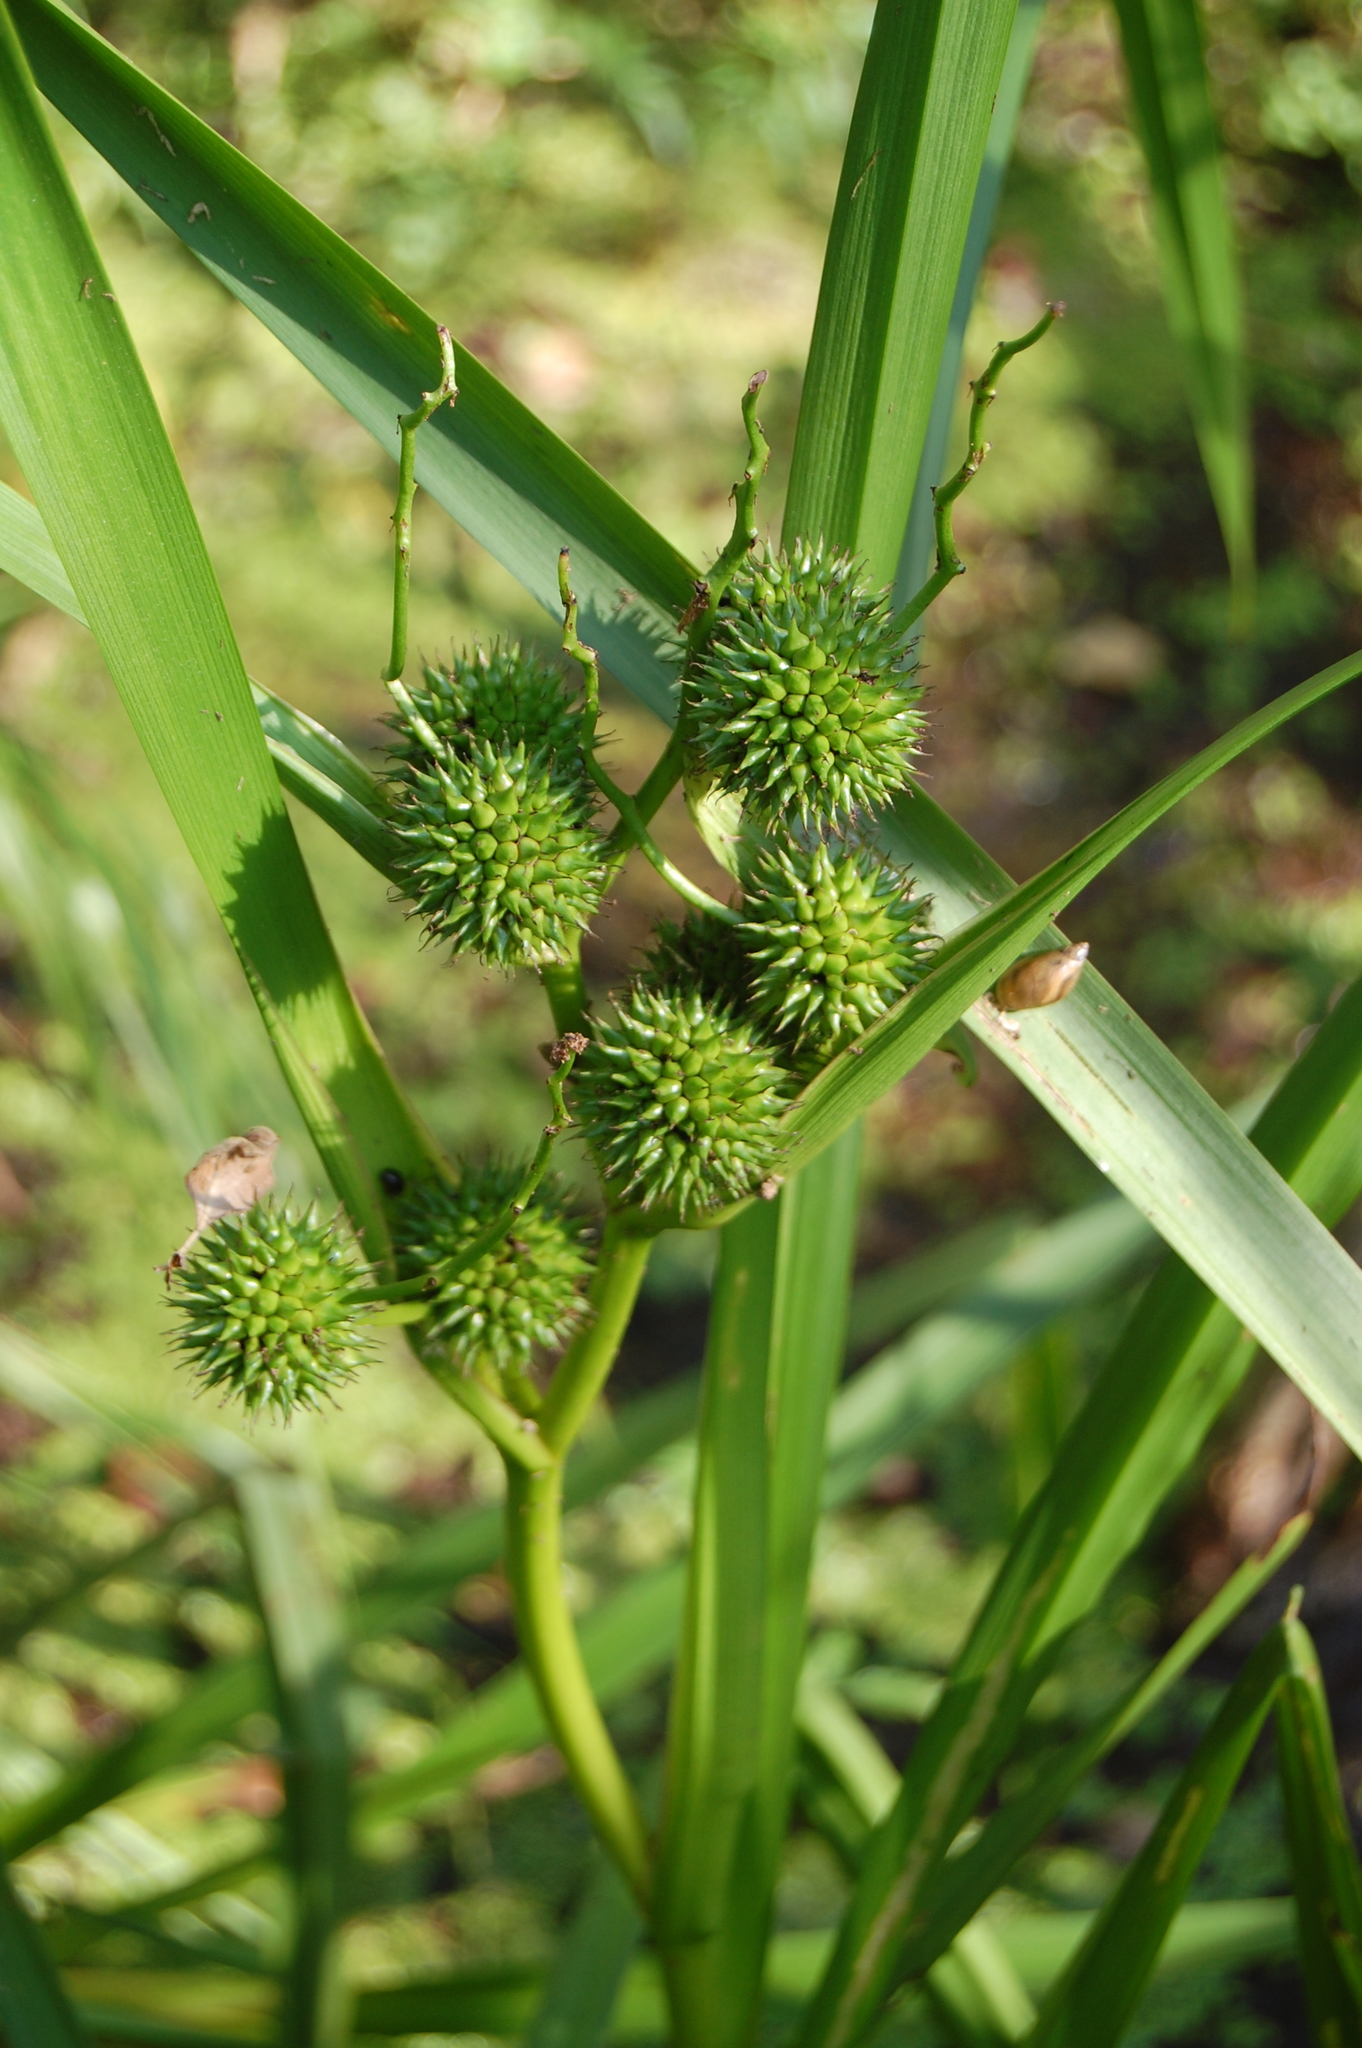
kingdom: Plantae
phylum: Tracheophyta
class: Liliopsida
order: Poales
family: Typhaceae
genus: Sparganium
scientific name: Sparganium erectum
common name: Branched bur-reed
